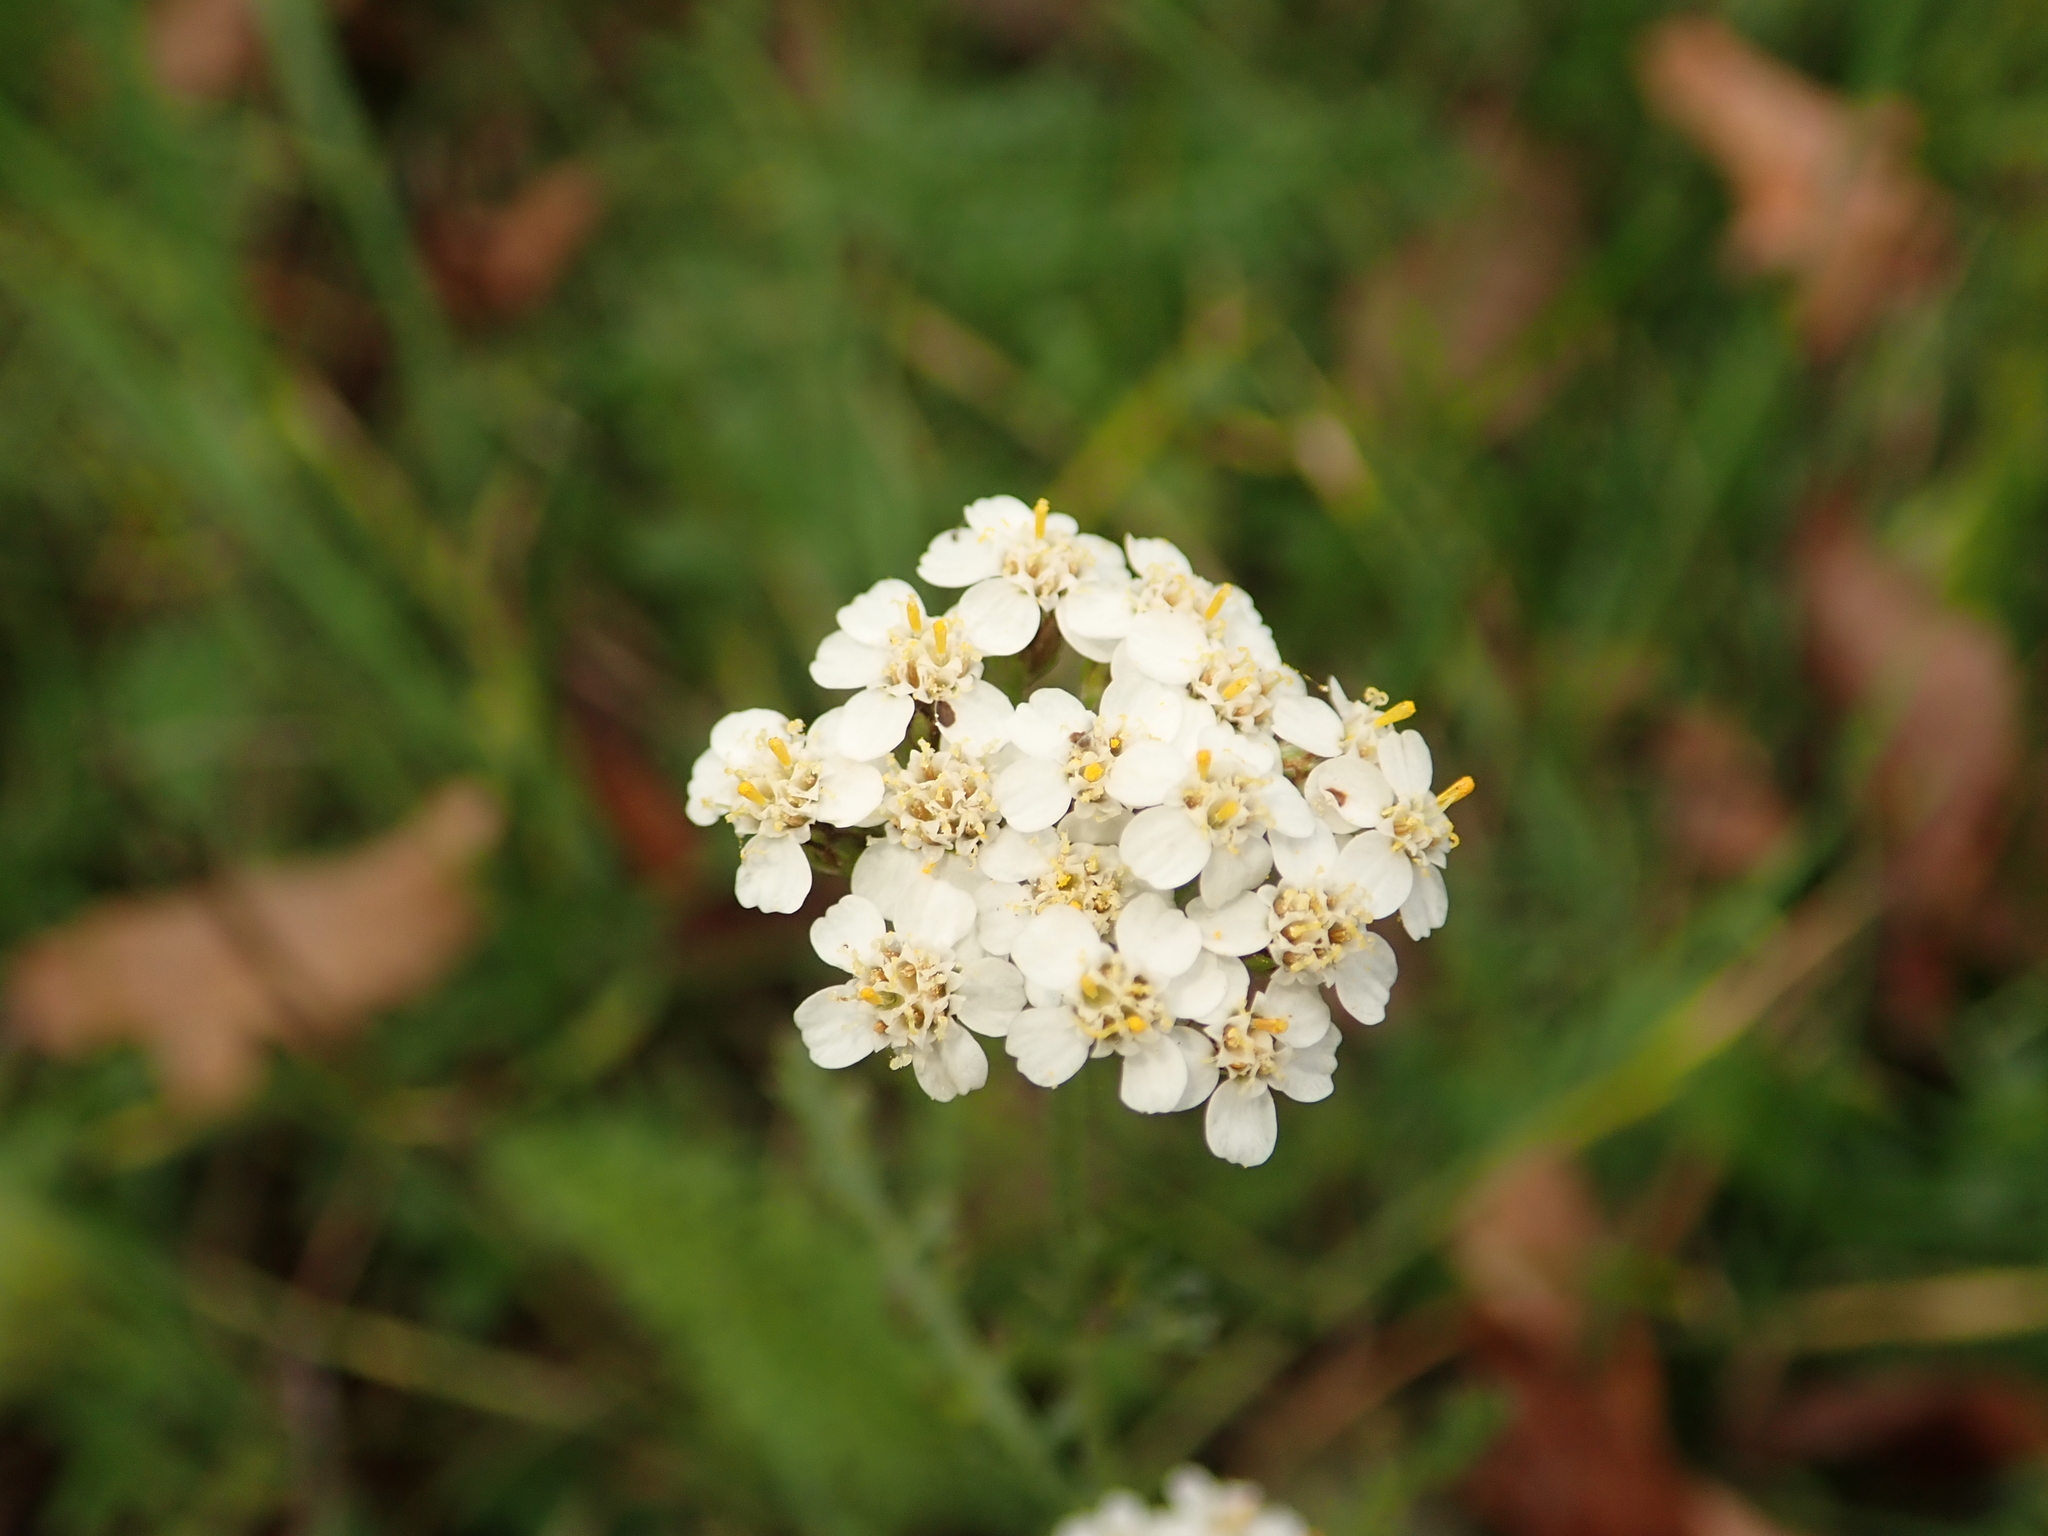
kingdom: Plantae
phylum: Tracheophyta
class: Magnoliopsida
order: Asterales
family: Asteraceae
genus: Achillea
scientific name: Achillea millefolium
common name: Yarrow
